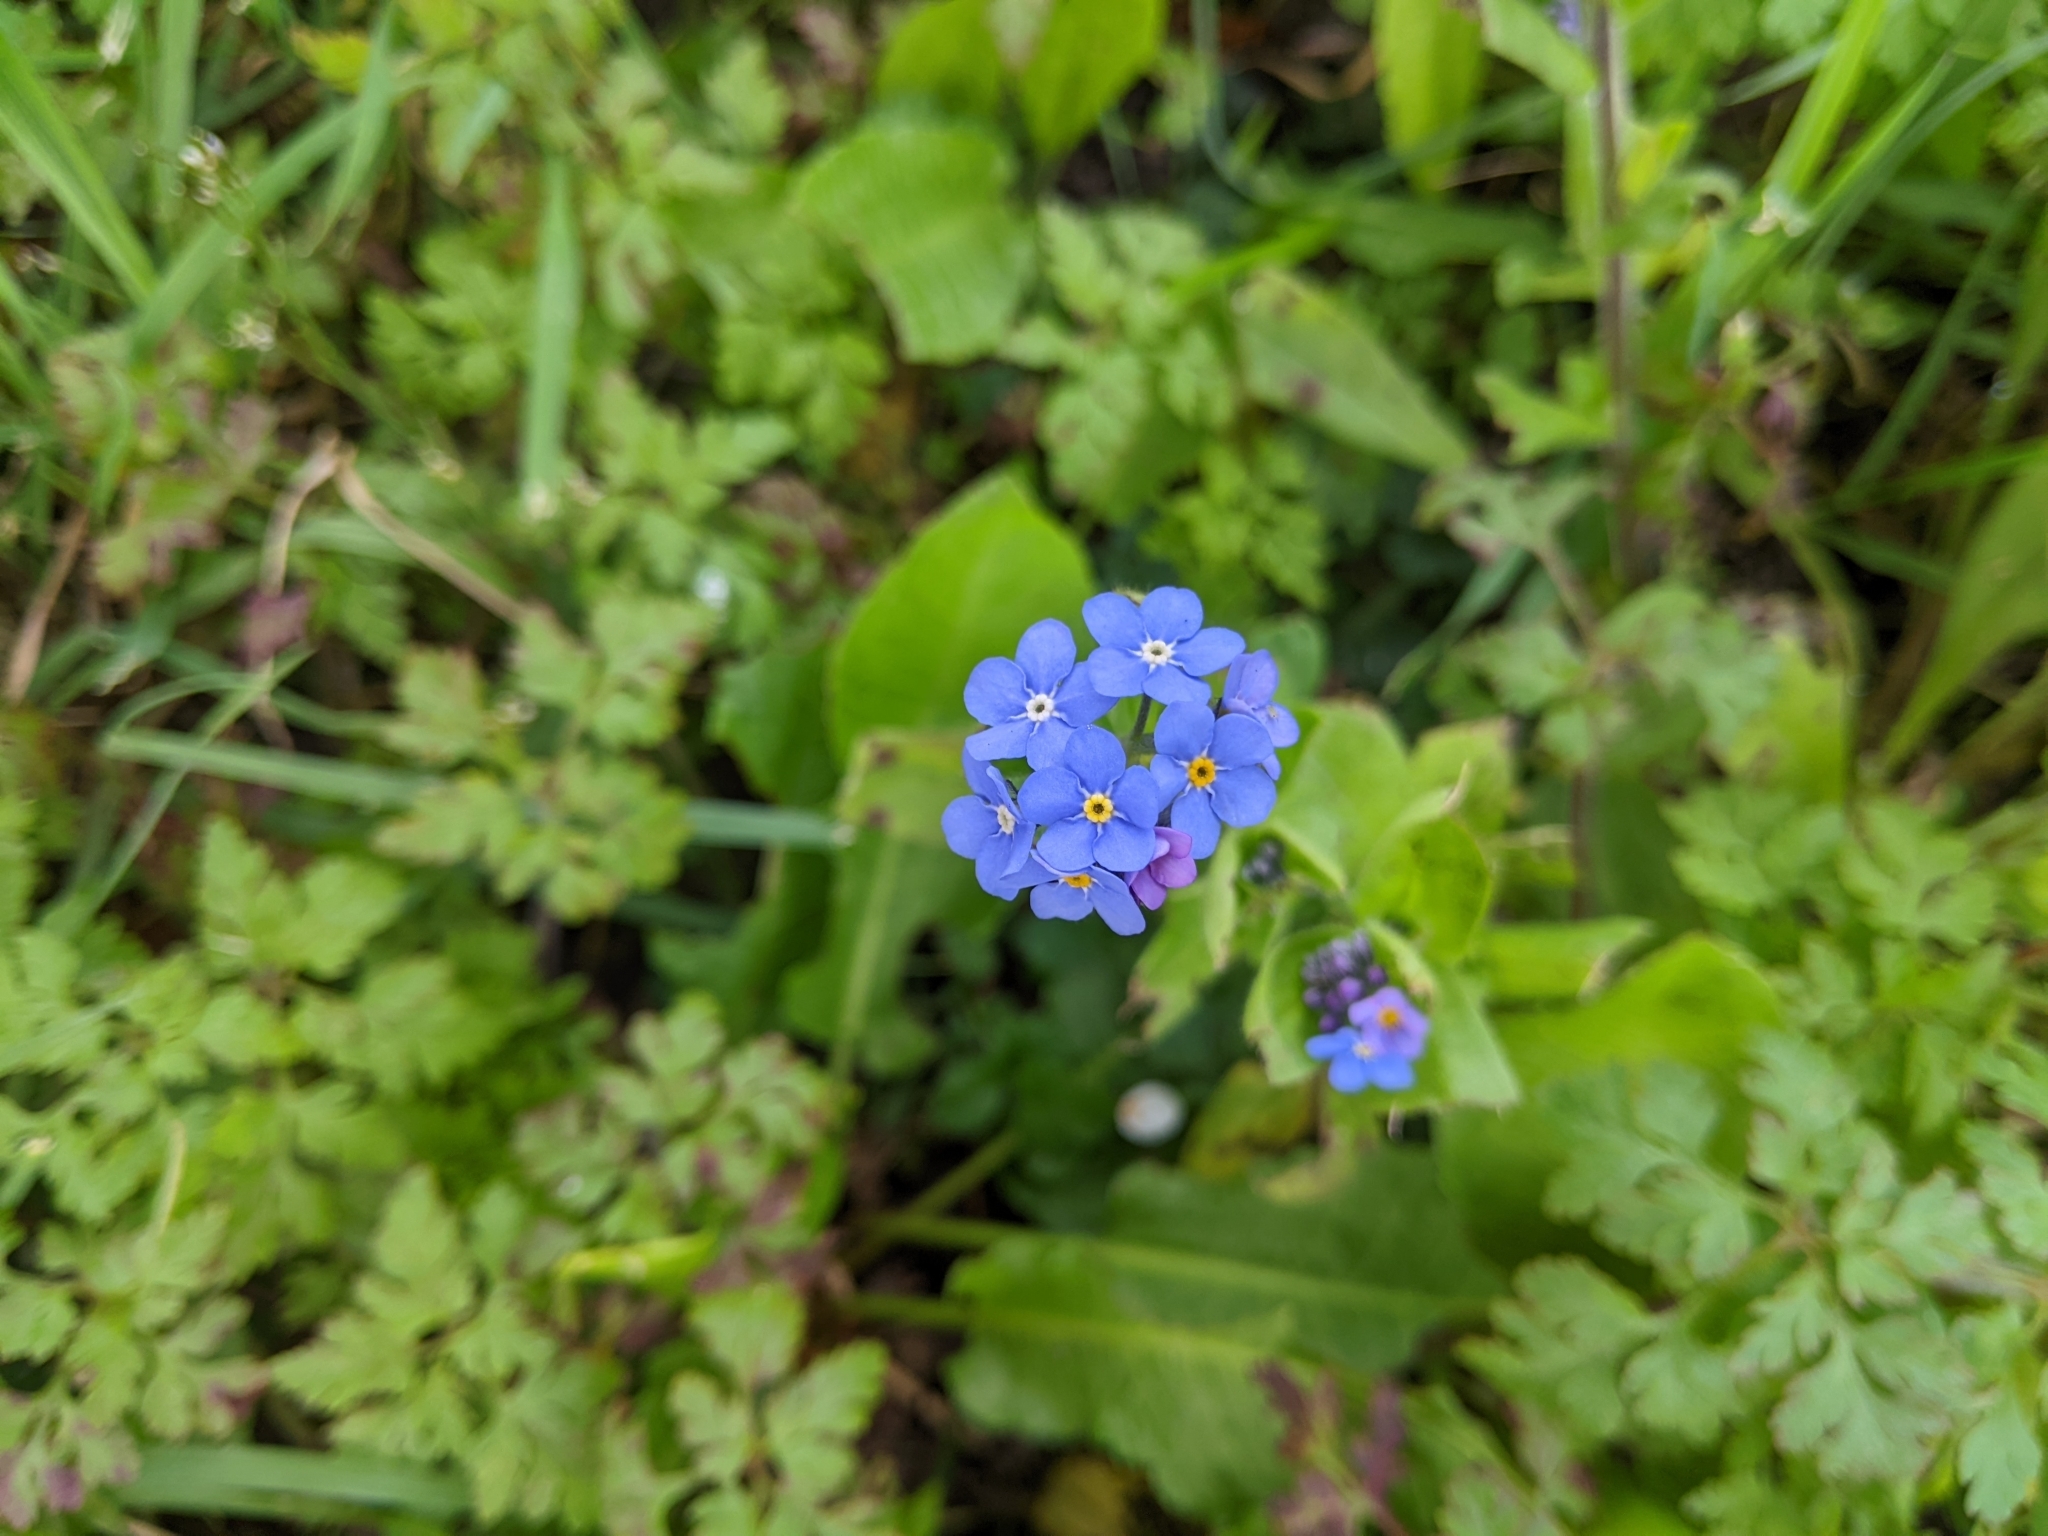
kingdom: Plantae
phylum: Tracheophyta
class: Magnoliopsida
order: Boraginales
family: Boraginaceae
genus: Myosotis
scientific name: Myosotis sylvatica
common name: Wood forget-me-not
